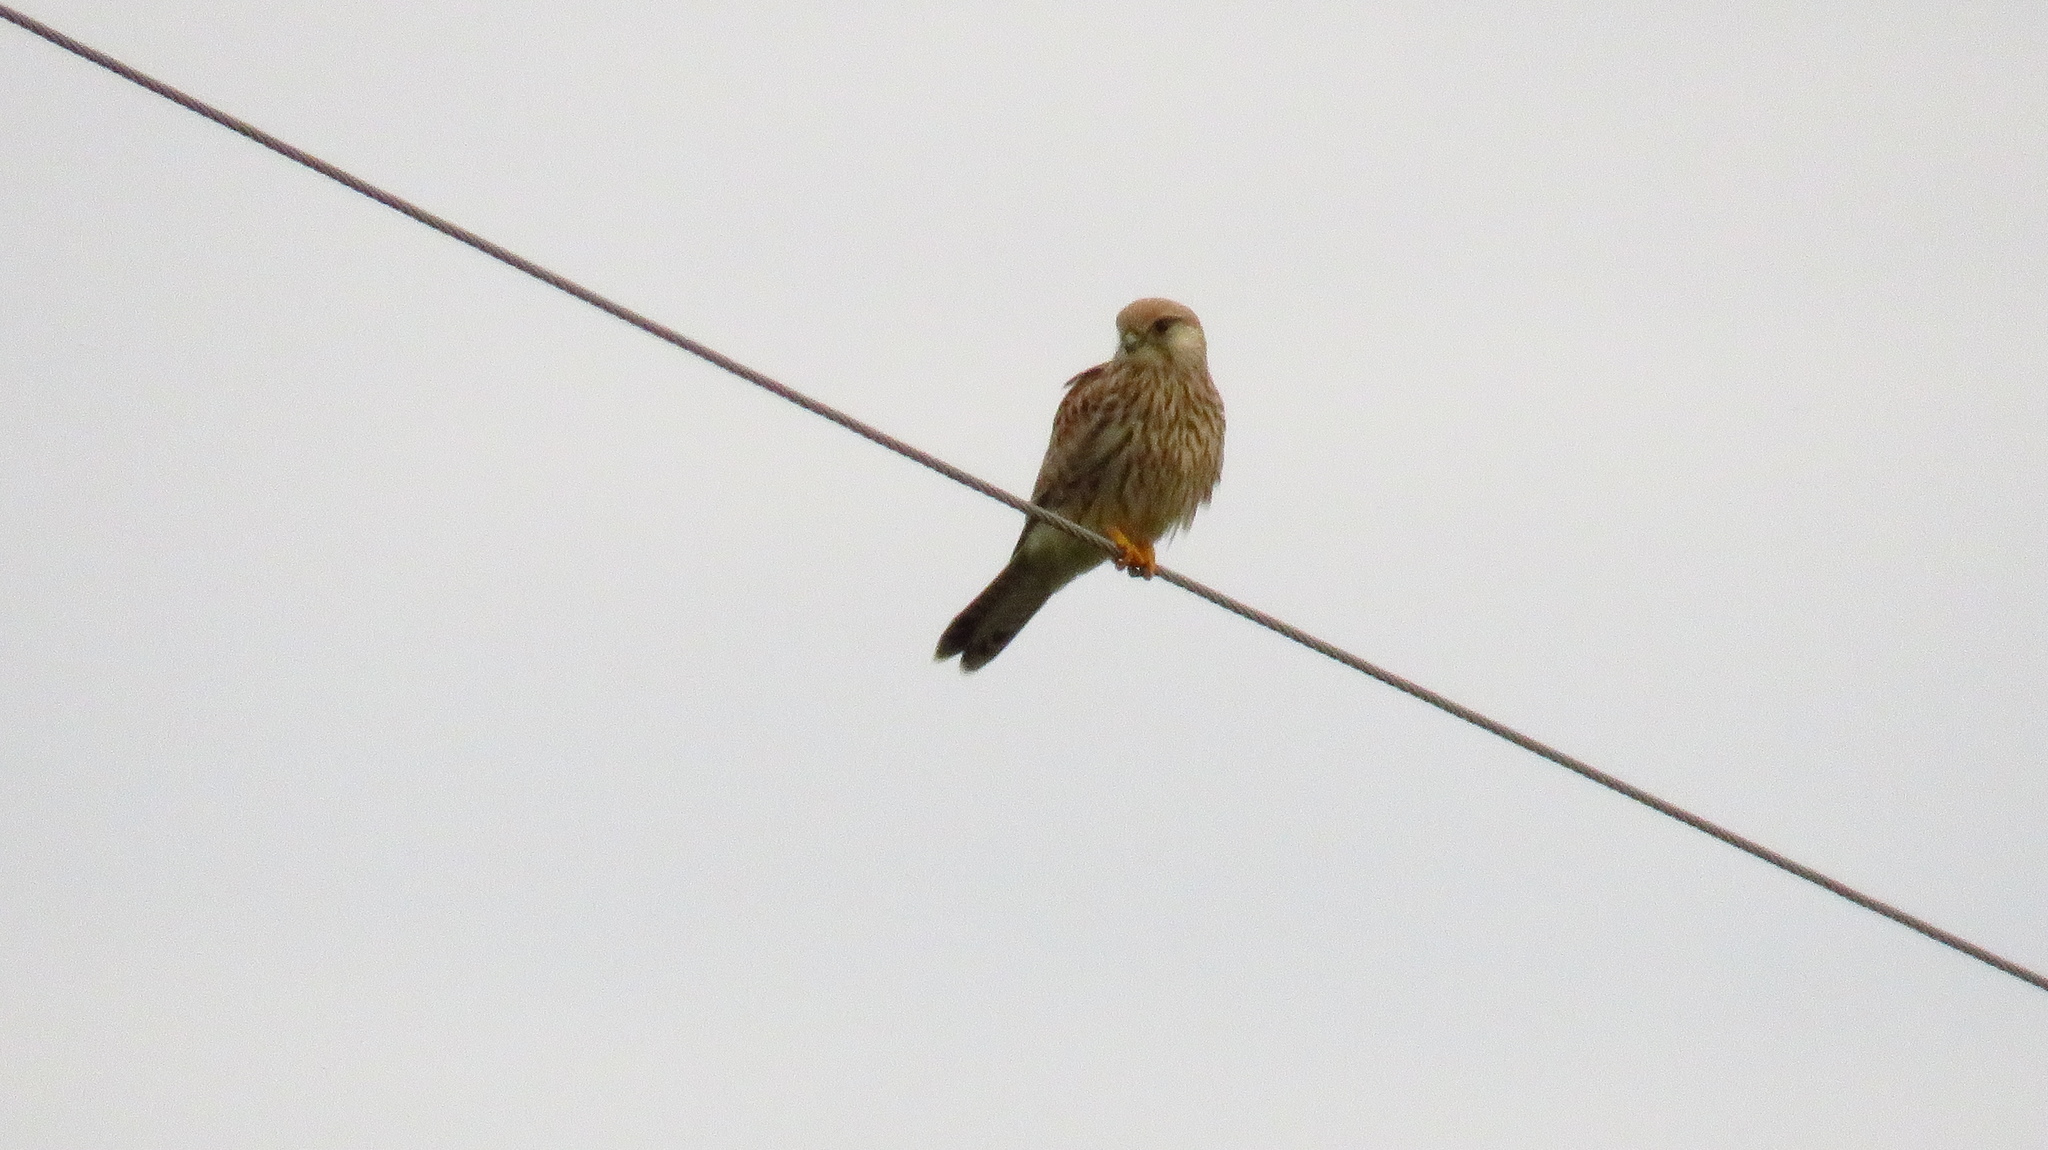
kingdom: Animalia
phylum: Chordata
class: Aves
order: Falconiformes
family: Falconidae
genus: Falco
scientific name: Falco tinnunculus
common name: Common kestrel
